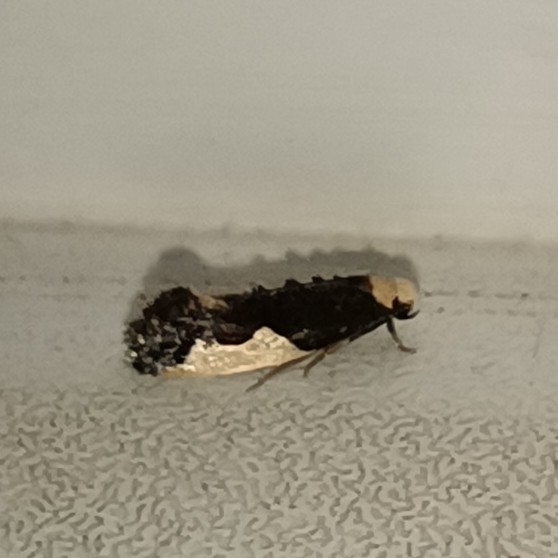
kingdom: Animalia
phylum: Arthropoda
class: Insecta
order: Lepidoptera
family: Tineidae
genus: Monopis
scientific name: Monopis monachella
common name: Moth
